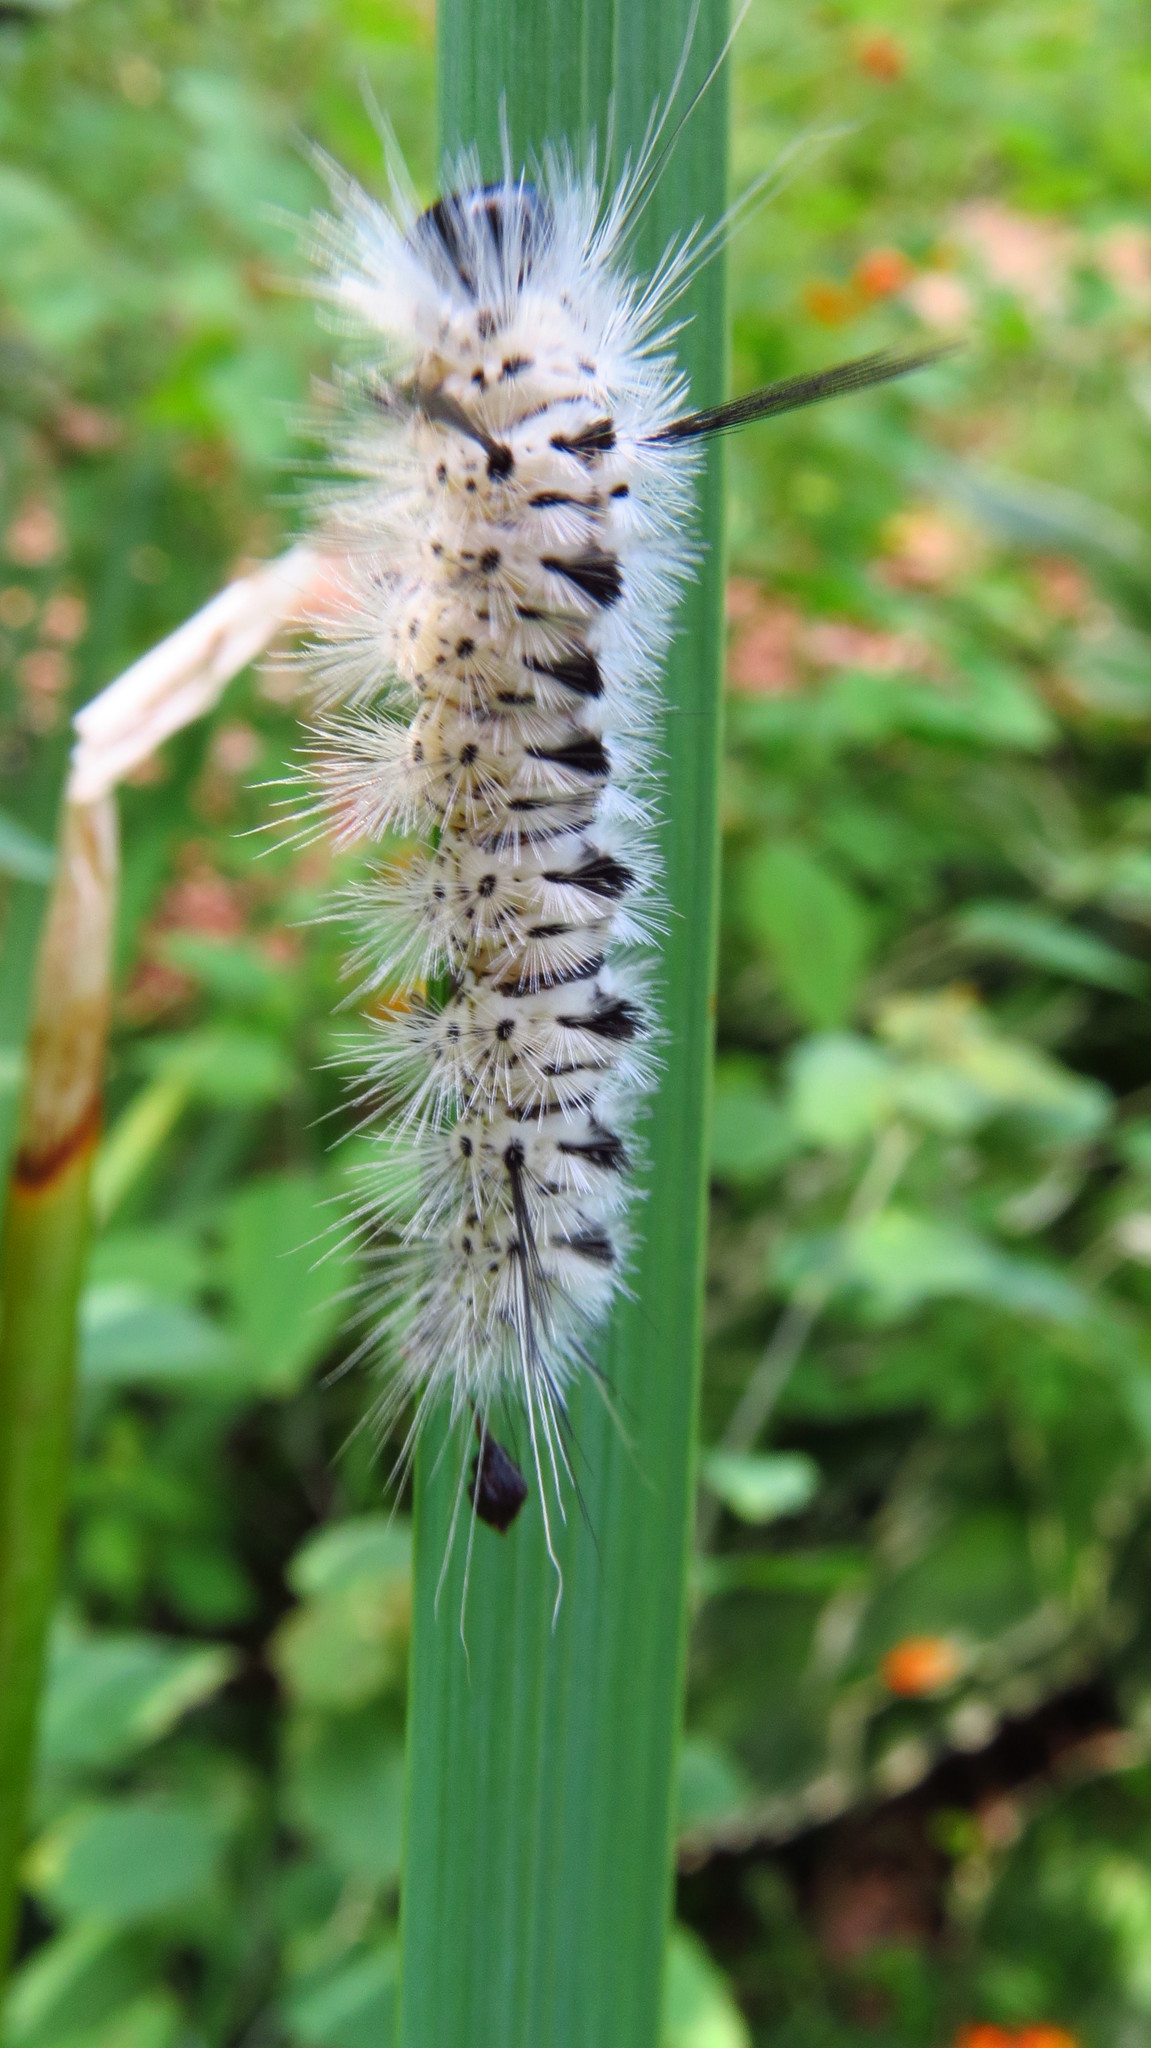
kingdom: Animalia
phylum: Arthropoda
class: Insecta
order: Lepidoptera
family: Erebidae
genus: Lophocampa
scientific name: Lophocampa caryae
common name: Hickory tussock moth
